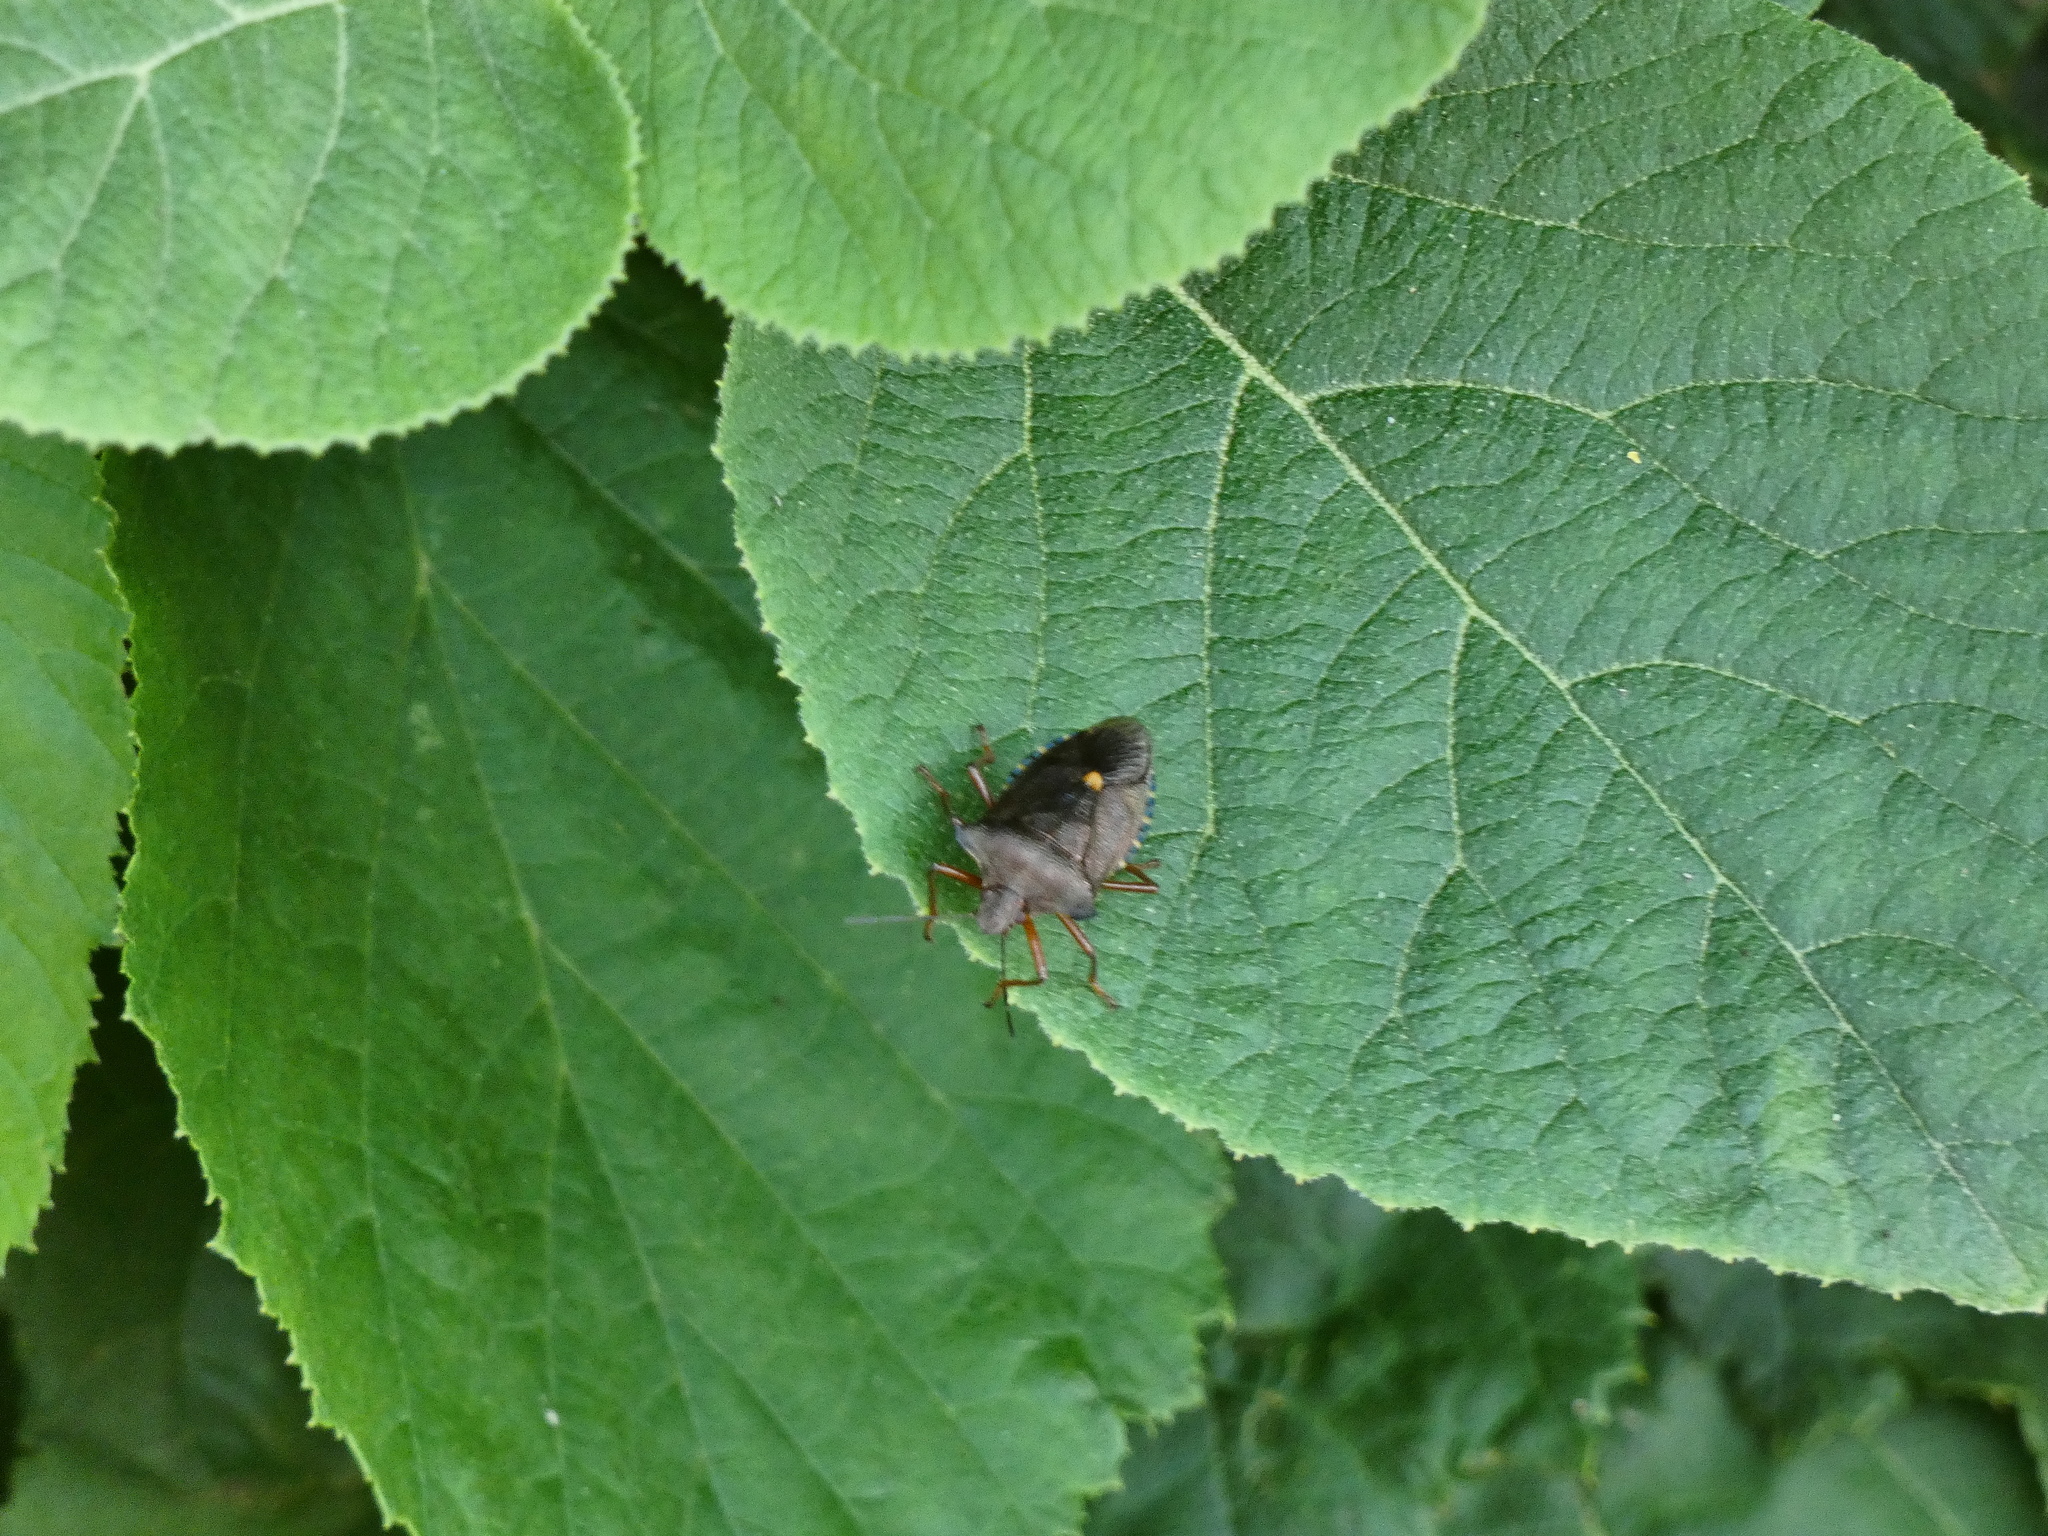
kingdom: Animalia
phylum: Arthropoda
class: Insecta
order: Hemiptera
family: Pentatomidae
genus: Pentatoma
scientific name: Pentatoma rufipes
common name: Forest bug
